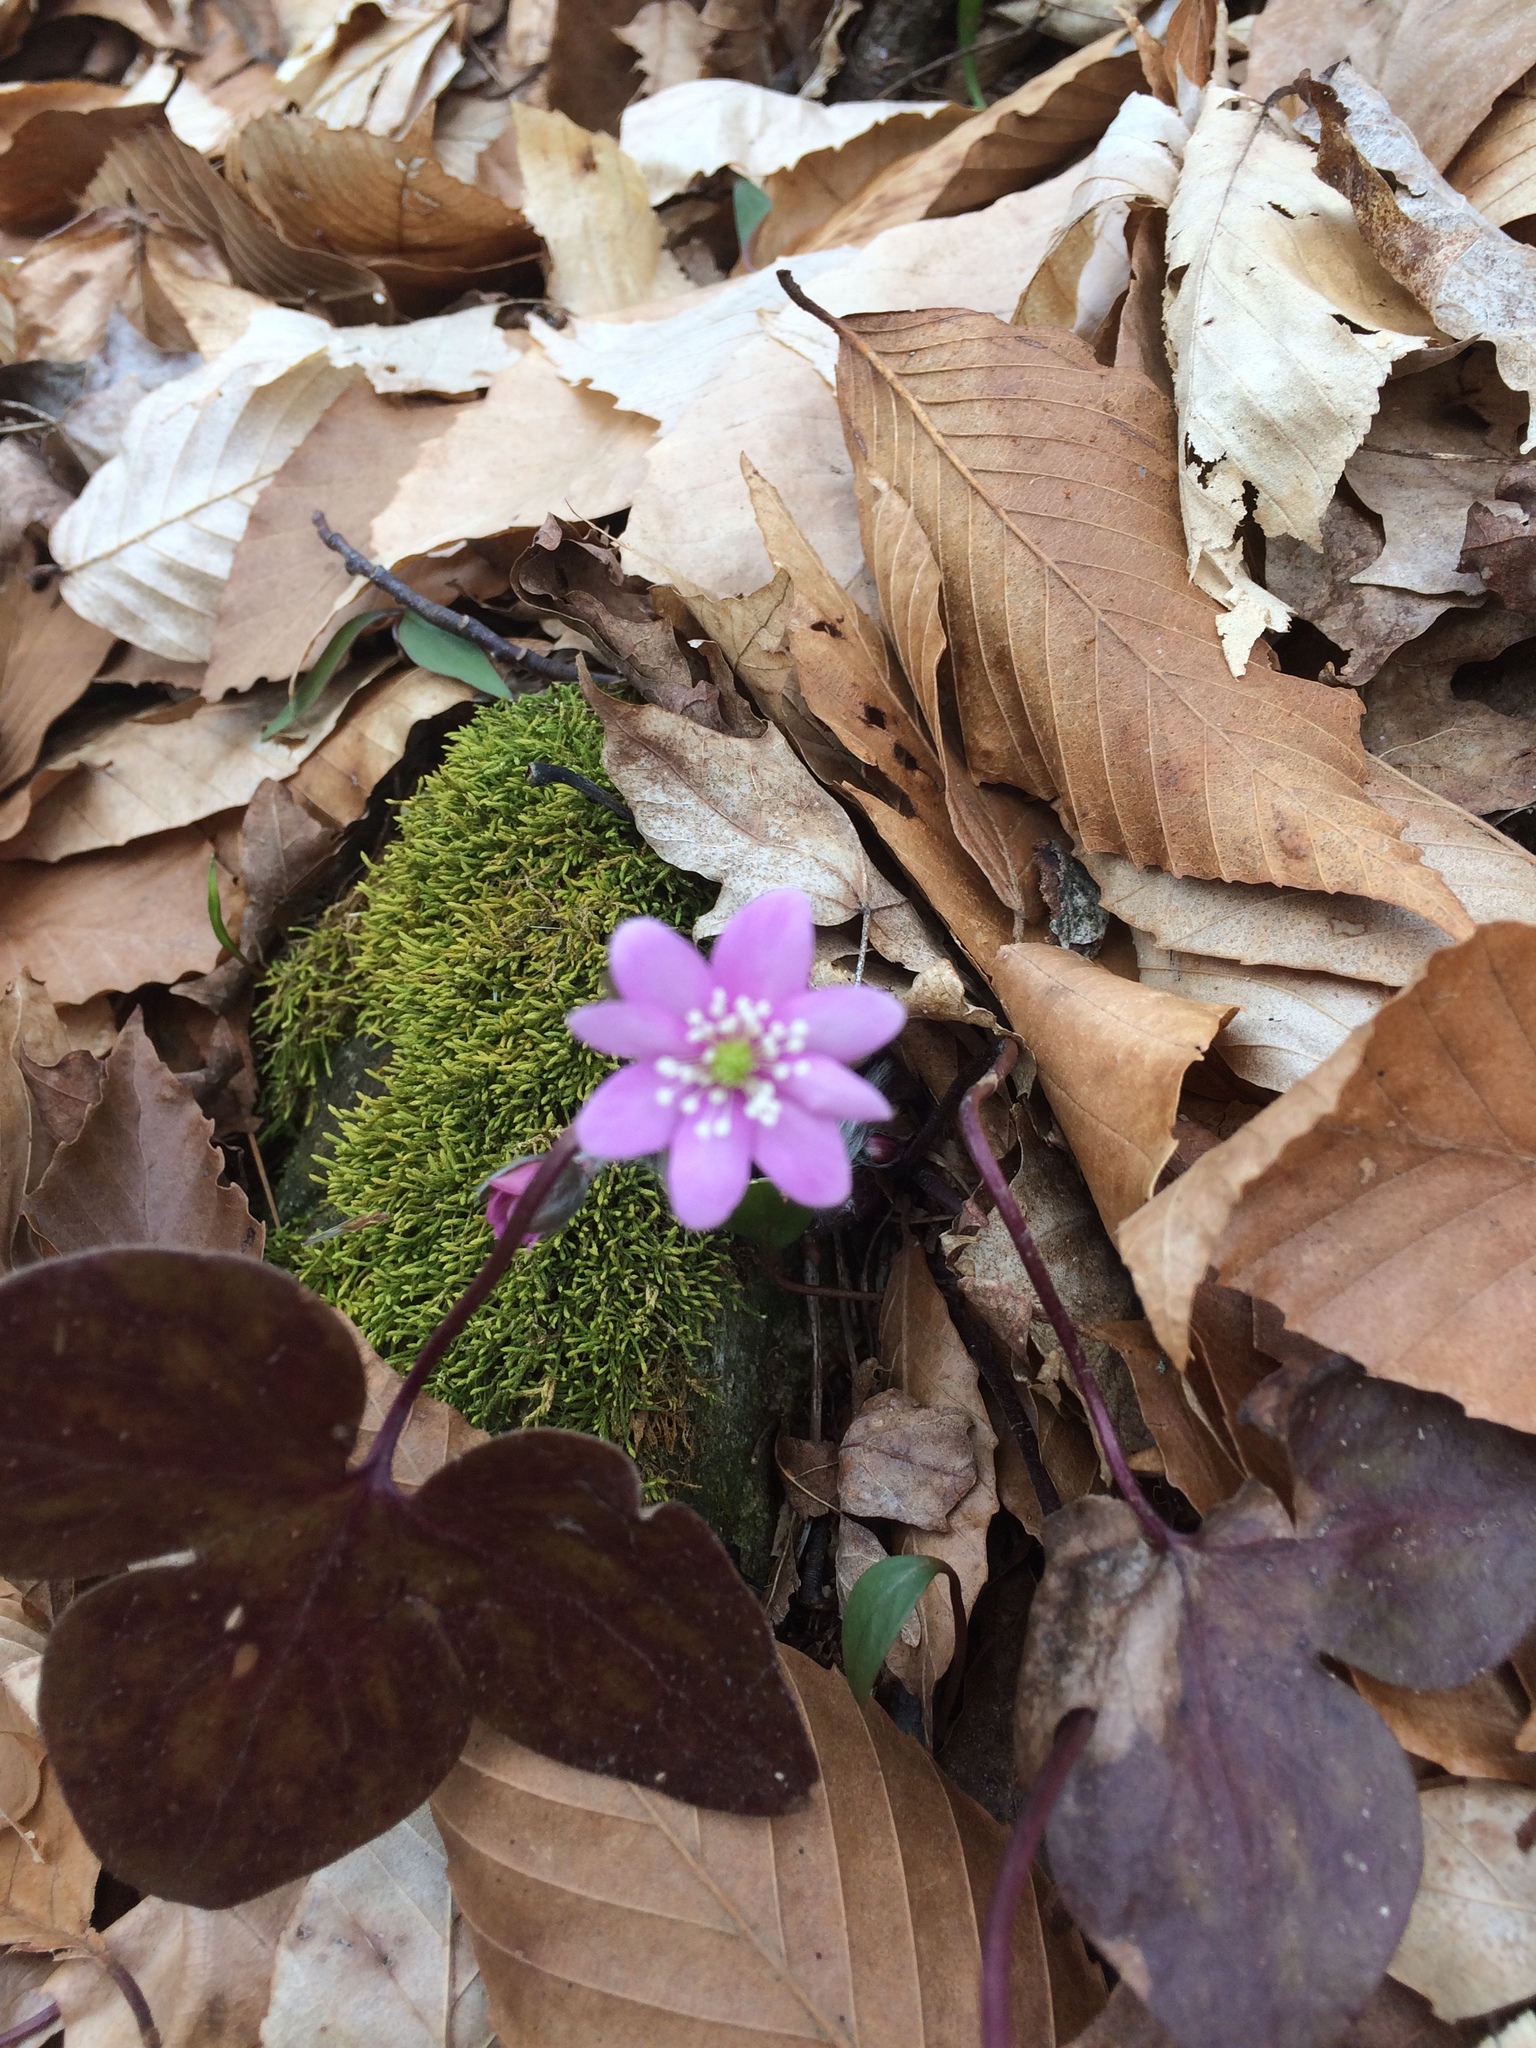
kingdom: Plantae
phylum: Tracheophyta
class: Magnoliopsida
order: Ranunculales
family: Ranunculaceae
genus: Hepatica
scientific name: Hepatica acutiloba
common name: Sharp-lobed hepatica
